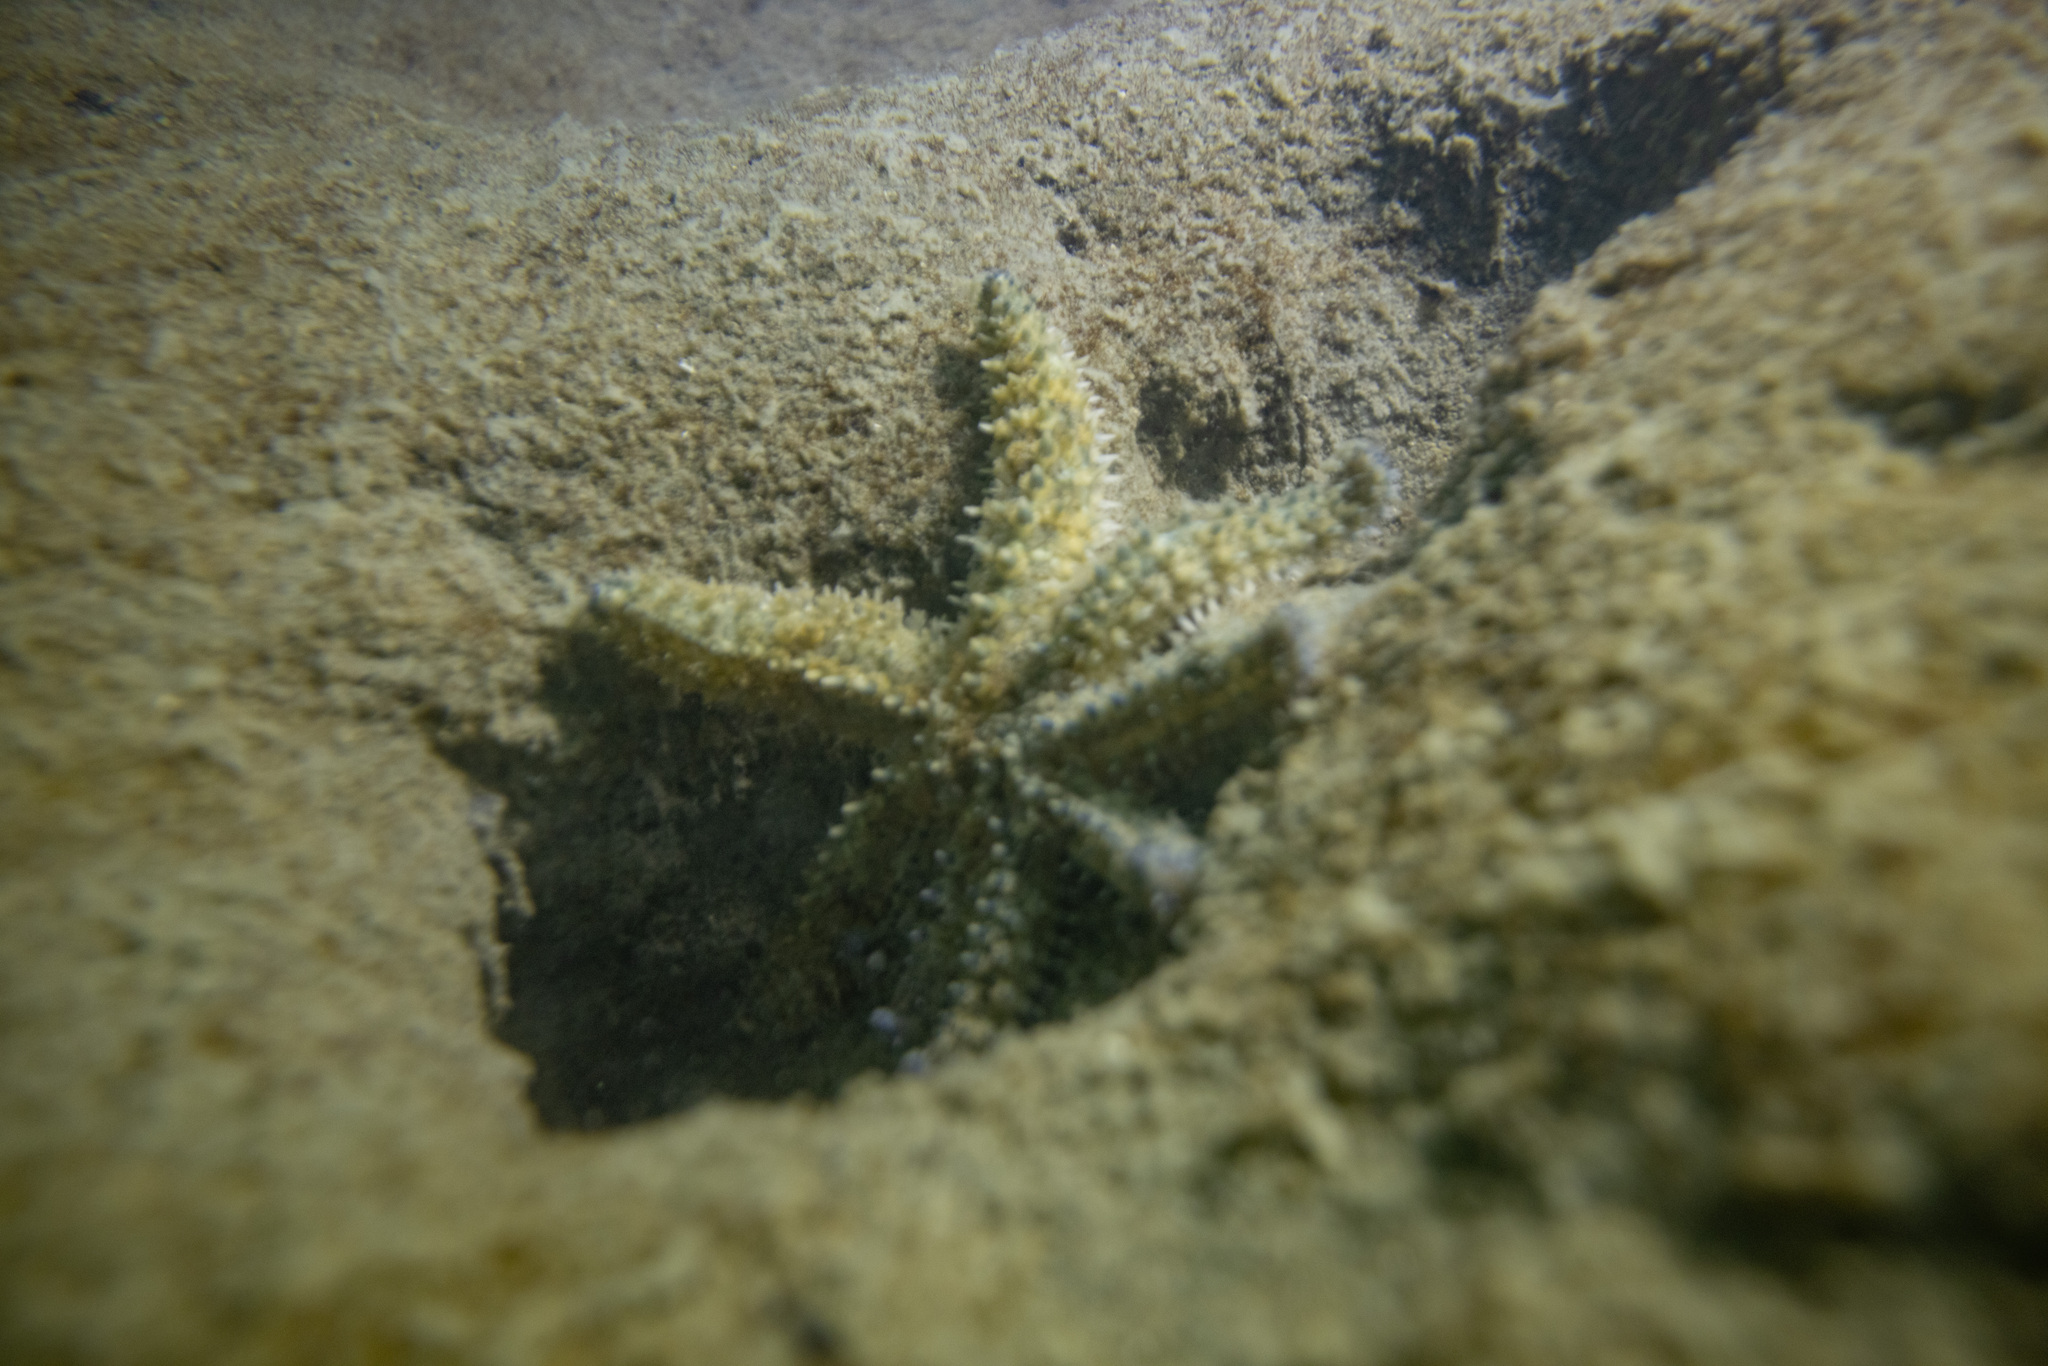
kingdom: Animalia
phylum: Echinodermata
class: Asteroidea
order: Forcipulatida
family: Asteriidae
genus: Coscinasterias
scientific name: Coscinasterias muricata
